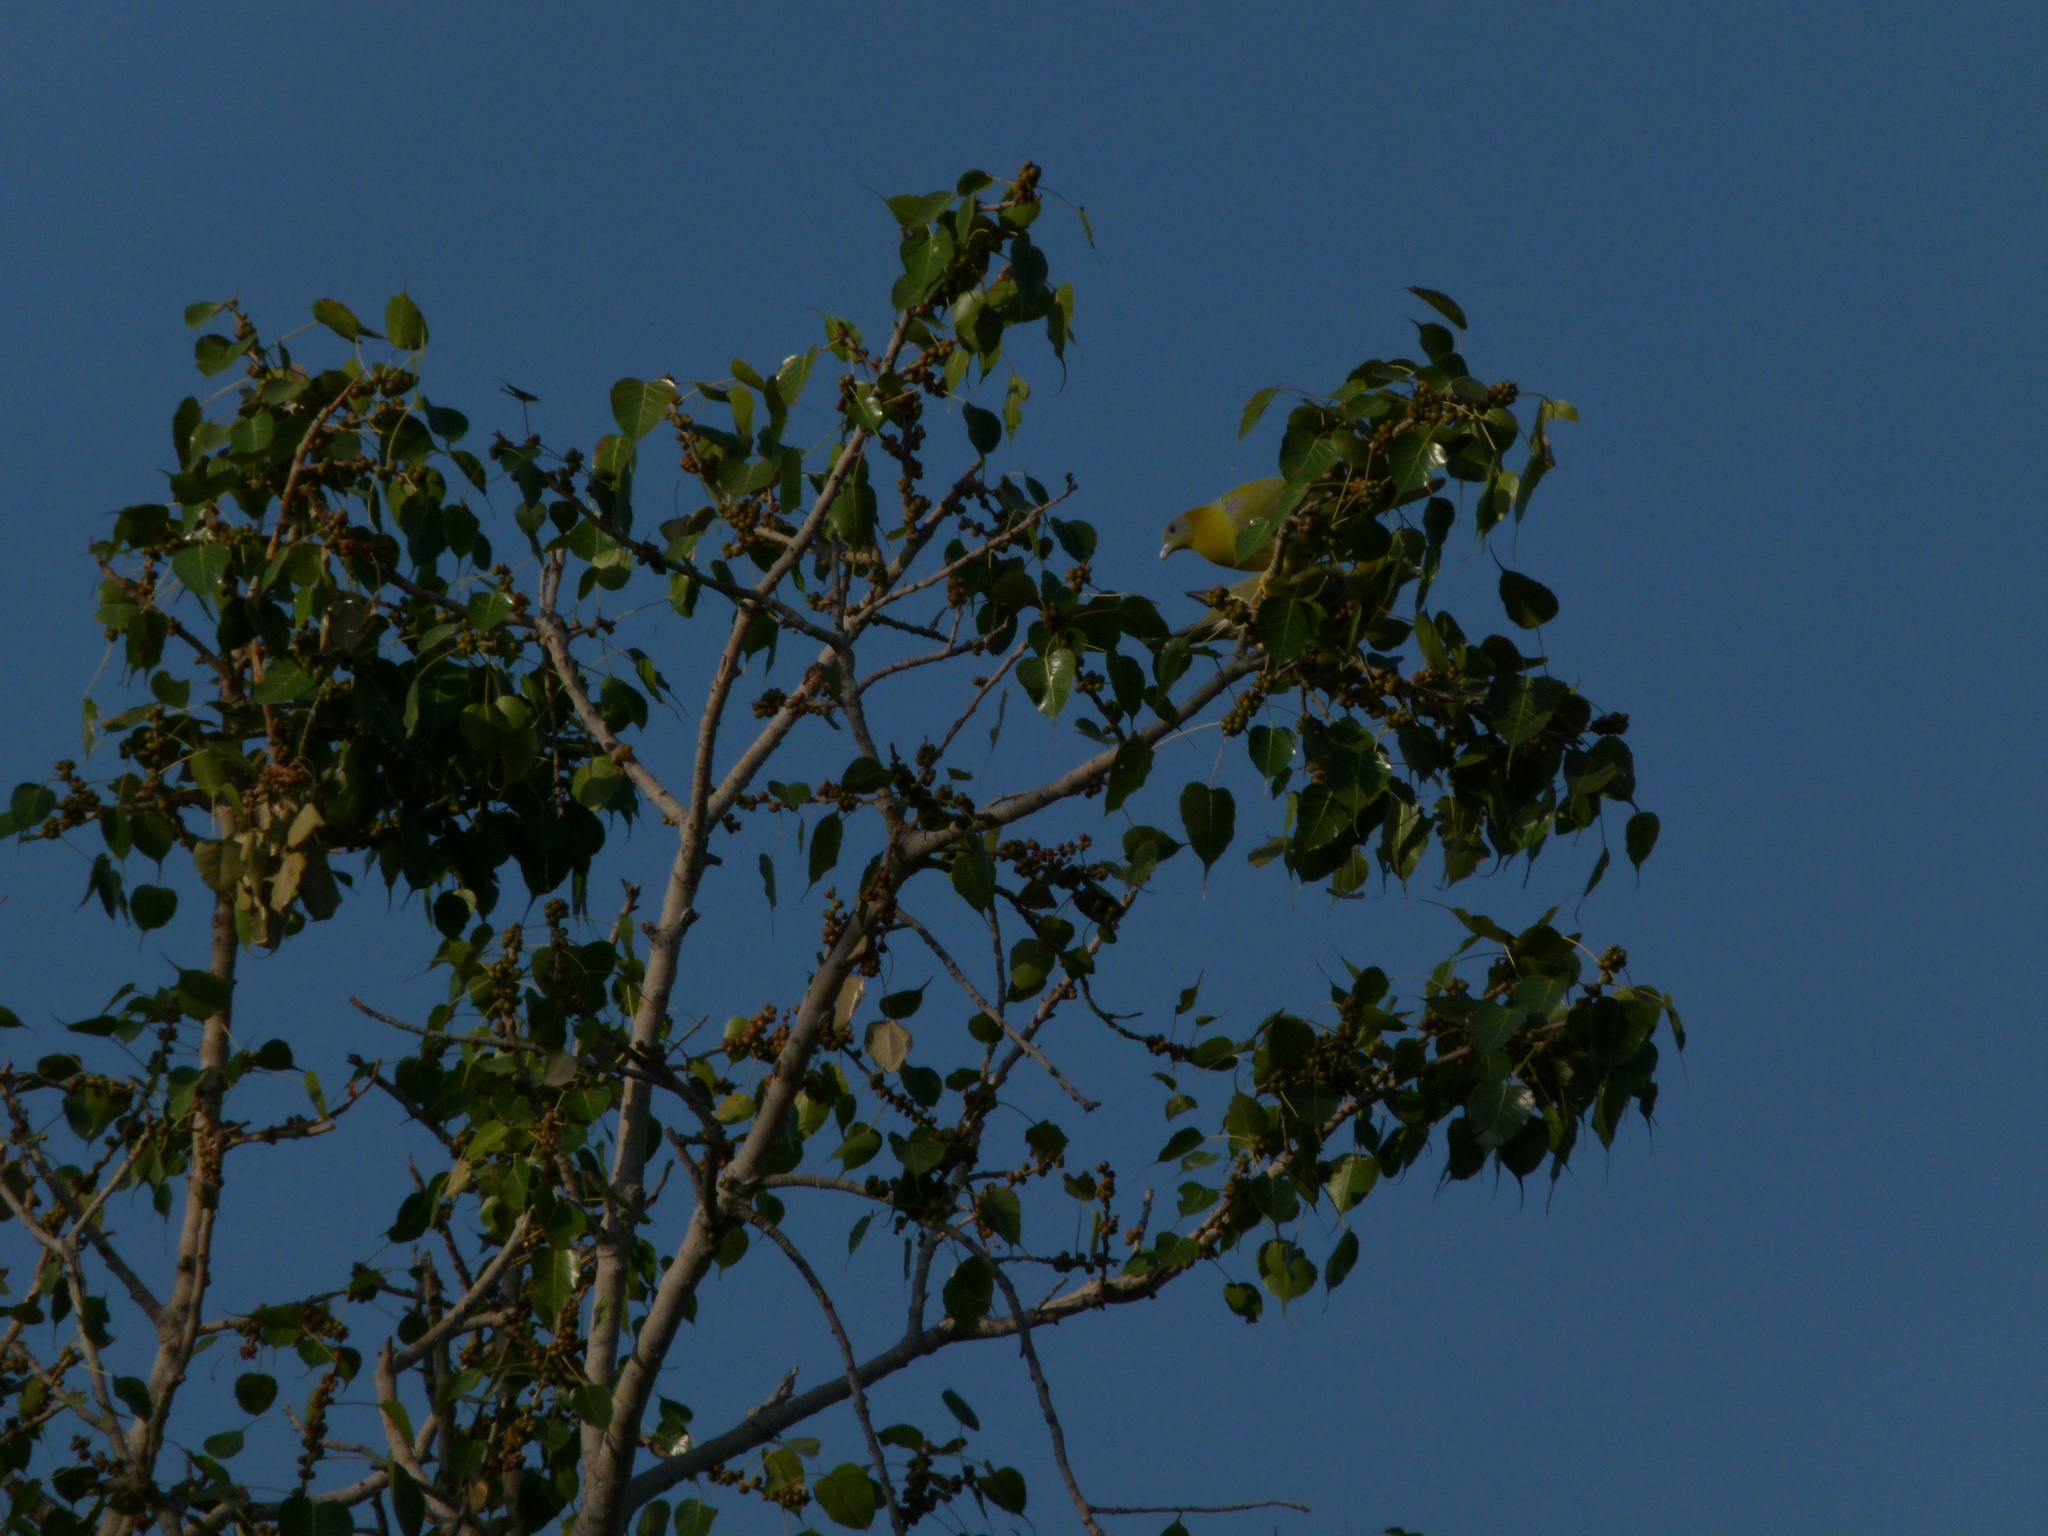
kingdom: Animalia
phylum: Chordata
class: Aves
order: Columbiformes
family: Columbidae
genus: Treron
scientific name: Treron phoenicopterus
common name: Yellow-footed green pigeon
